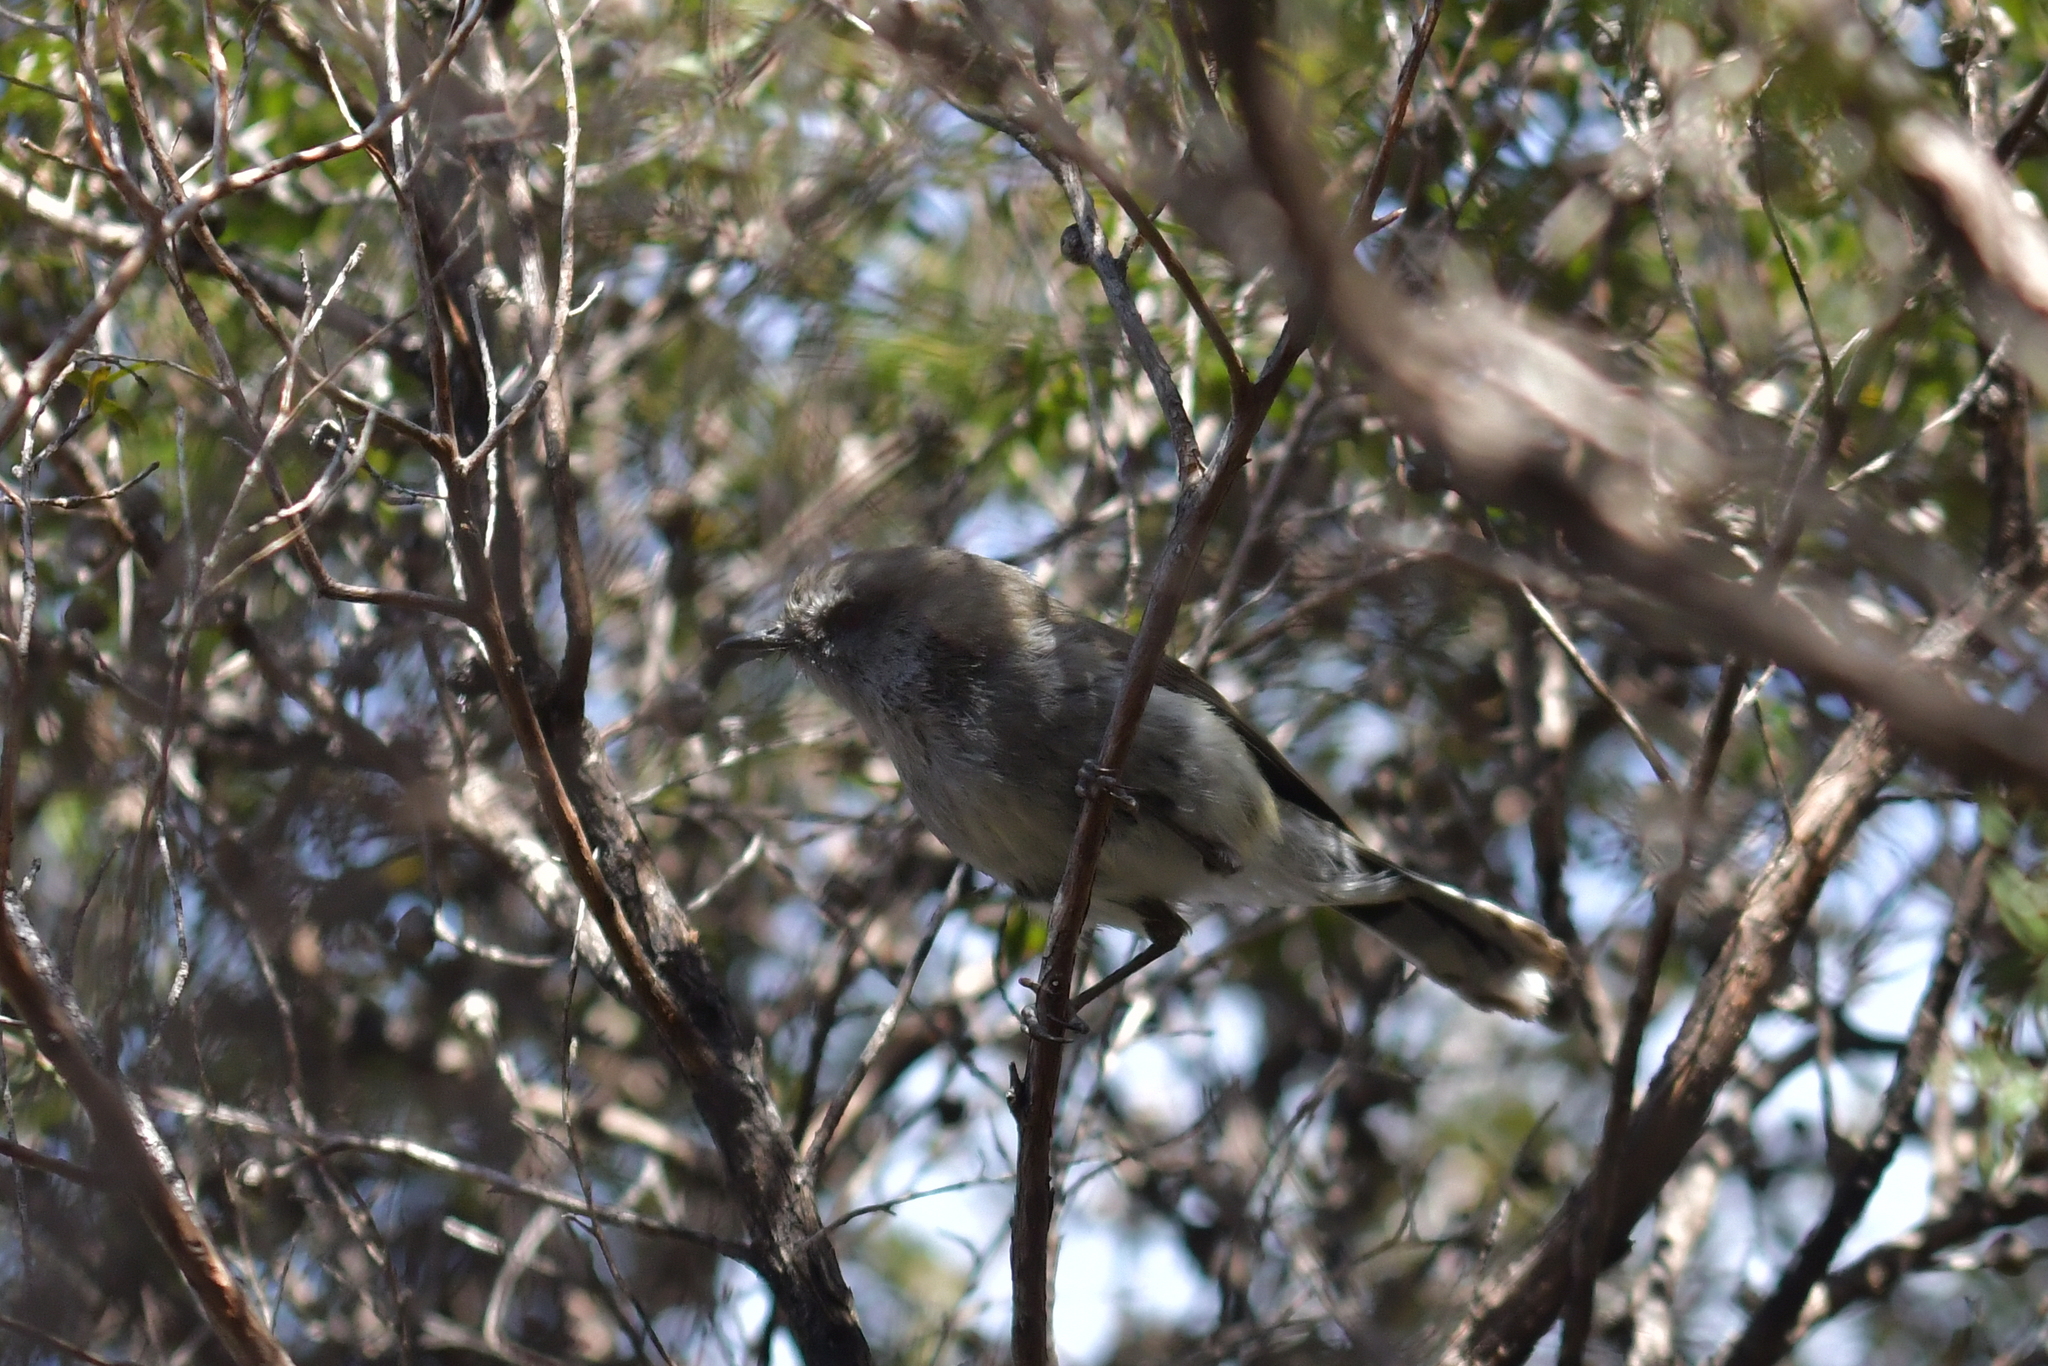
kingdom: Animalia
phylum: Chordata
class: Aves
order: Passeriformes
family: Acanthizidae
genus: Gerygone
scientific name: Gerygone igata
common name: Grey gerygone
